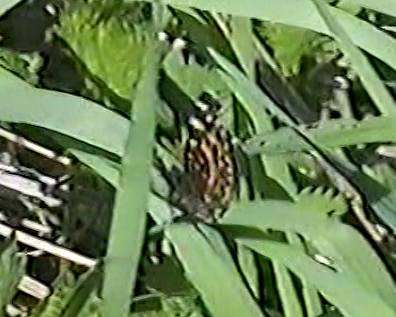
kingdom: Animalia
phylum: Arthropoda
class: Insecta
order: Lepidoptera
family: Nymphalidae
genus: Araschnia
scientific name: Araschnia levana
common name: Map butterfly
